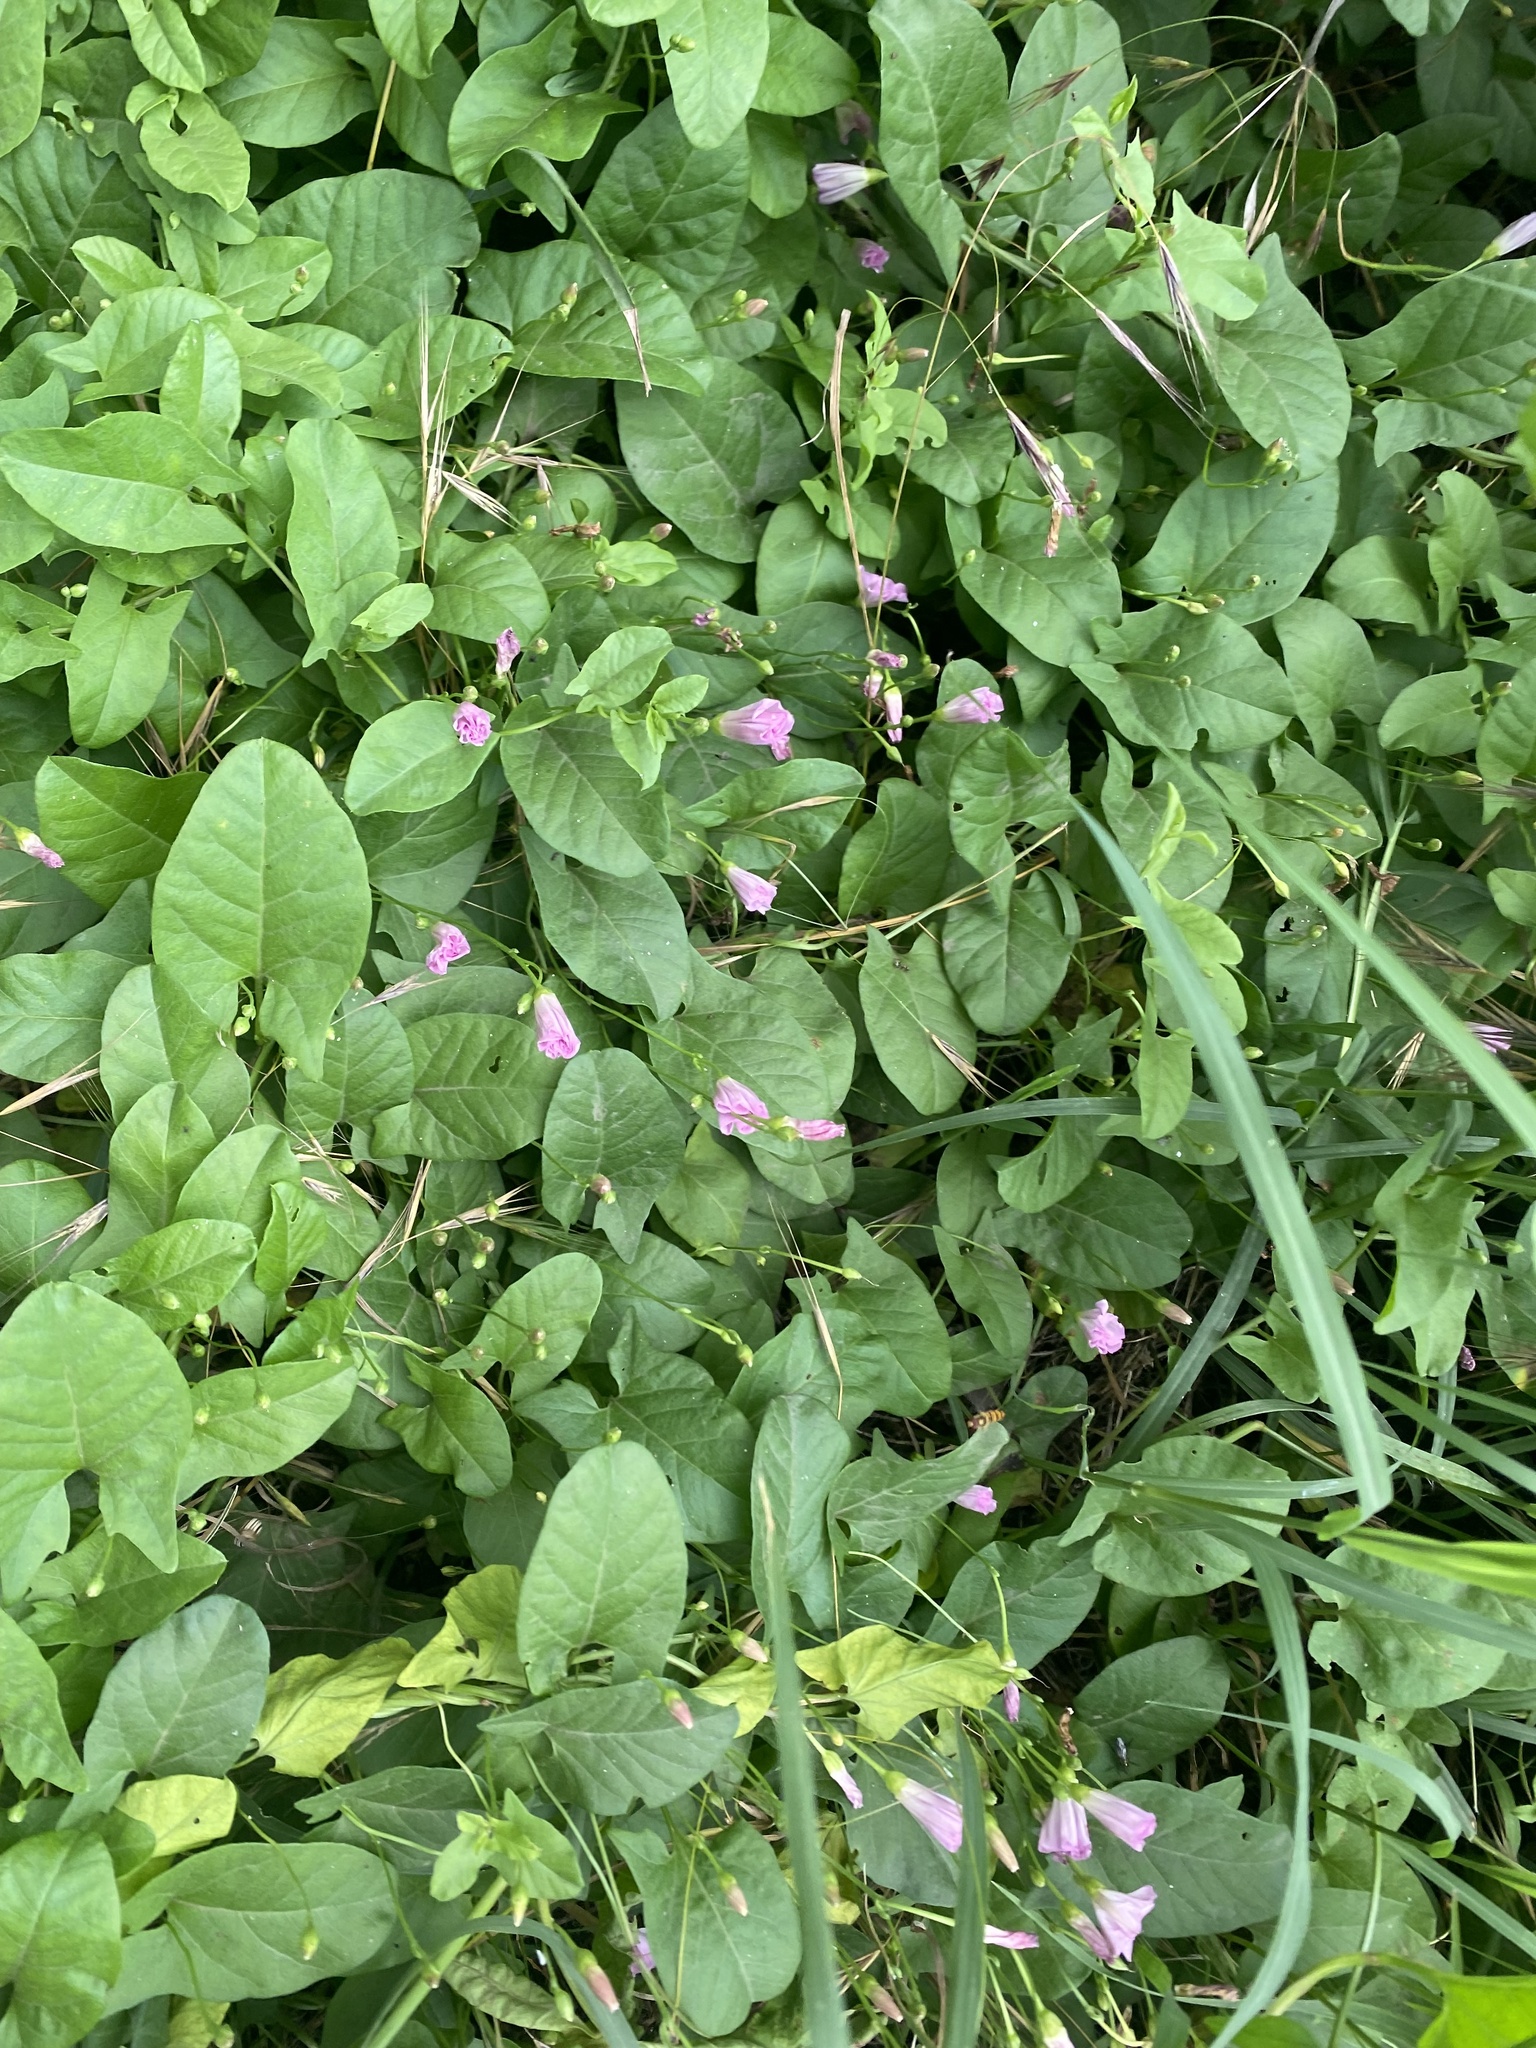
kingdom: Plantae
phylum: Tracheophyta
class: Magnoliopsida
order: Solanales
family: Convolvulaceae
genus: Convolvulus
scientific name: Convolvulus arvensis
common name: Field bindweed
